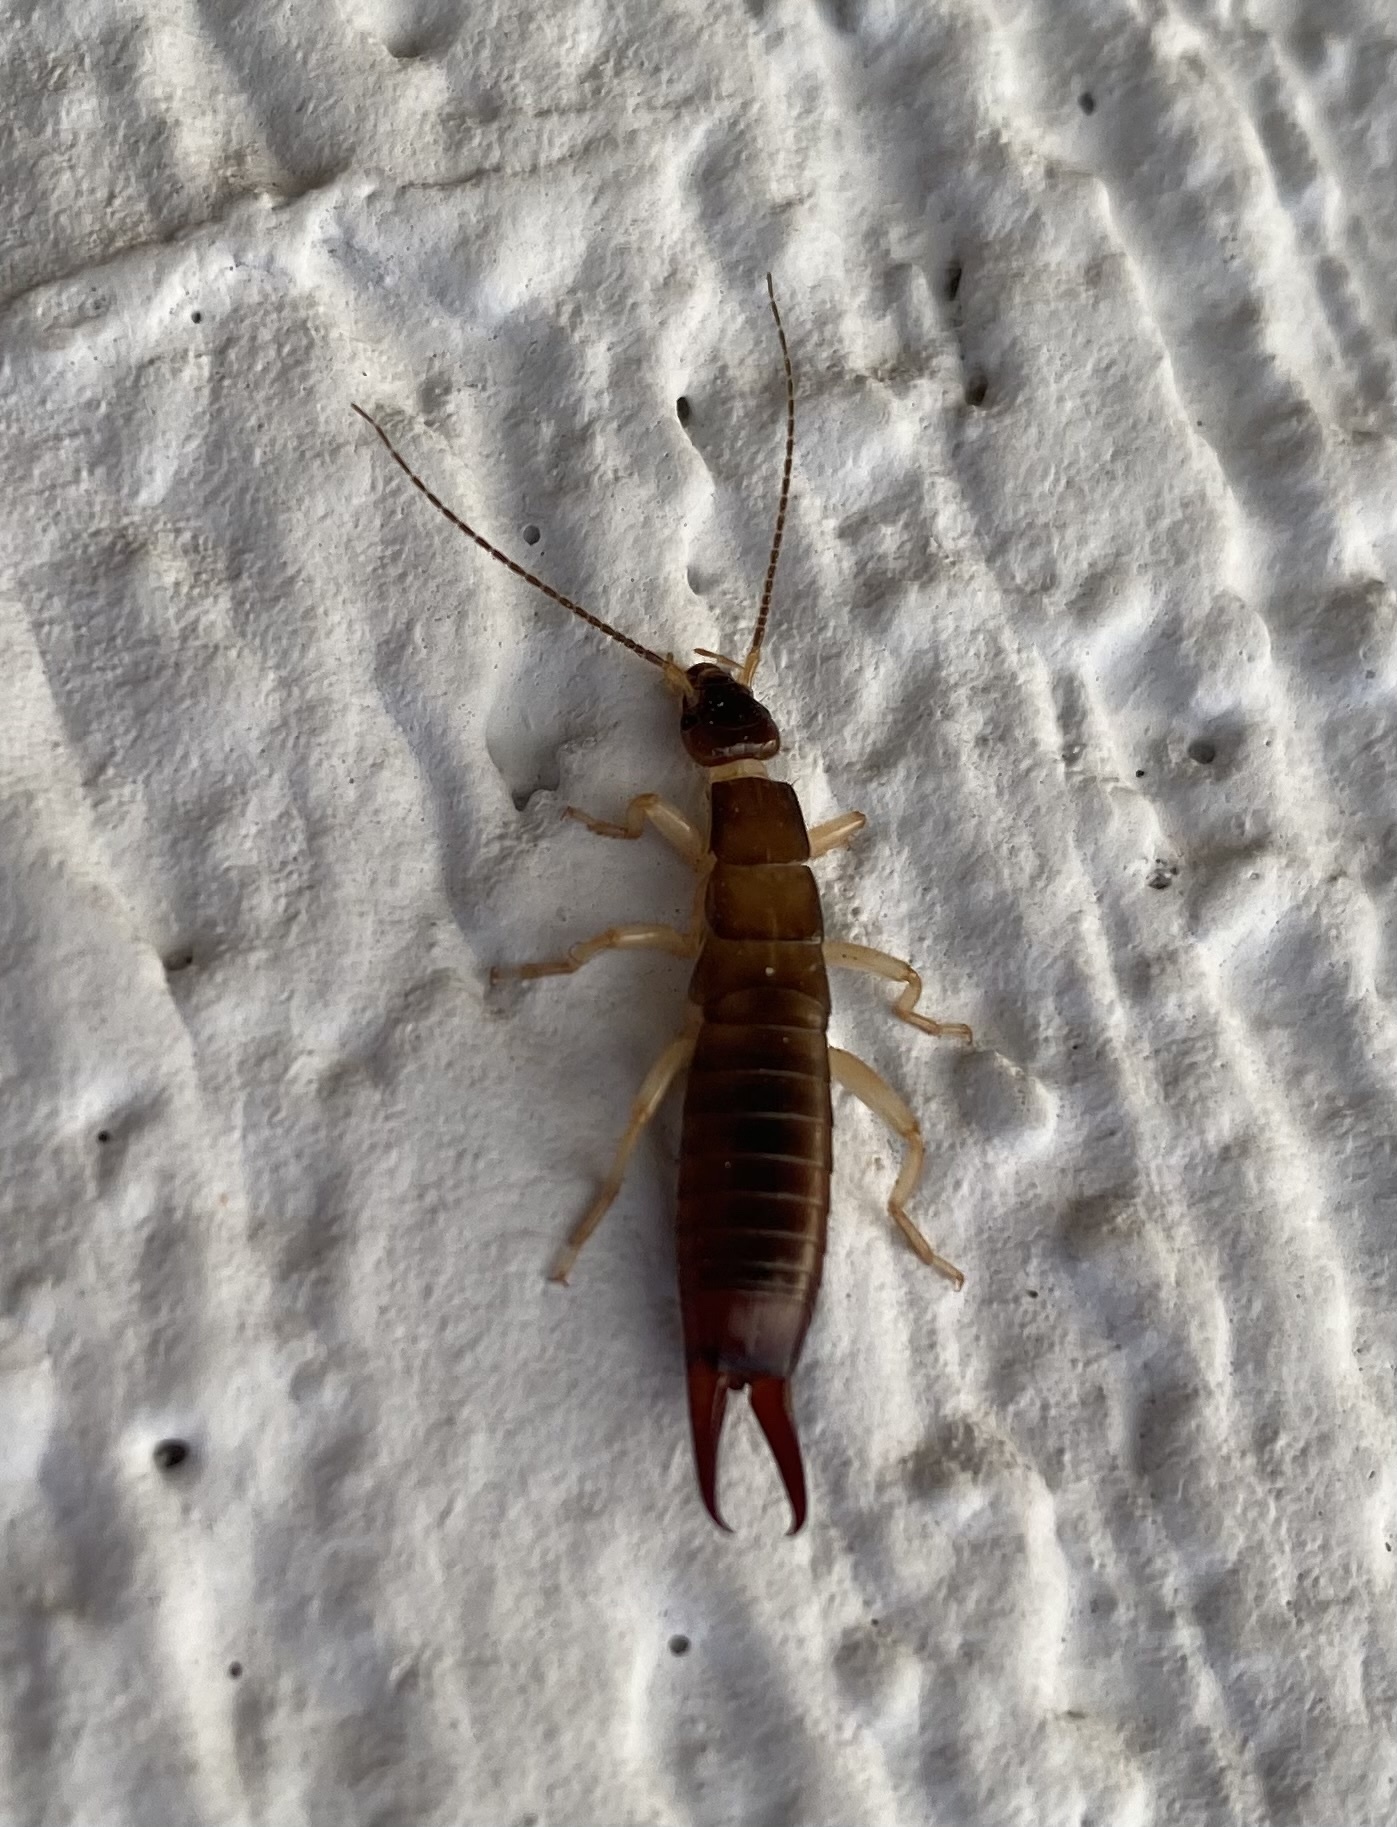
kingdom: Animalia
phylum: Arthropoda
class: Insecta
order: Dermaptera
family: Anisolabididae
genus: Anisolabis
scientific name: Anisolabis maritima
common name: Maritime earwig
